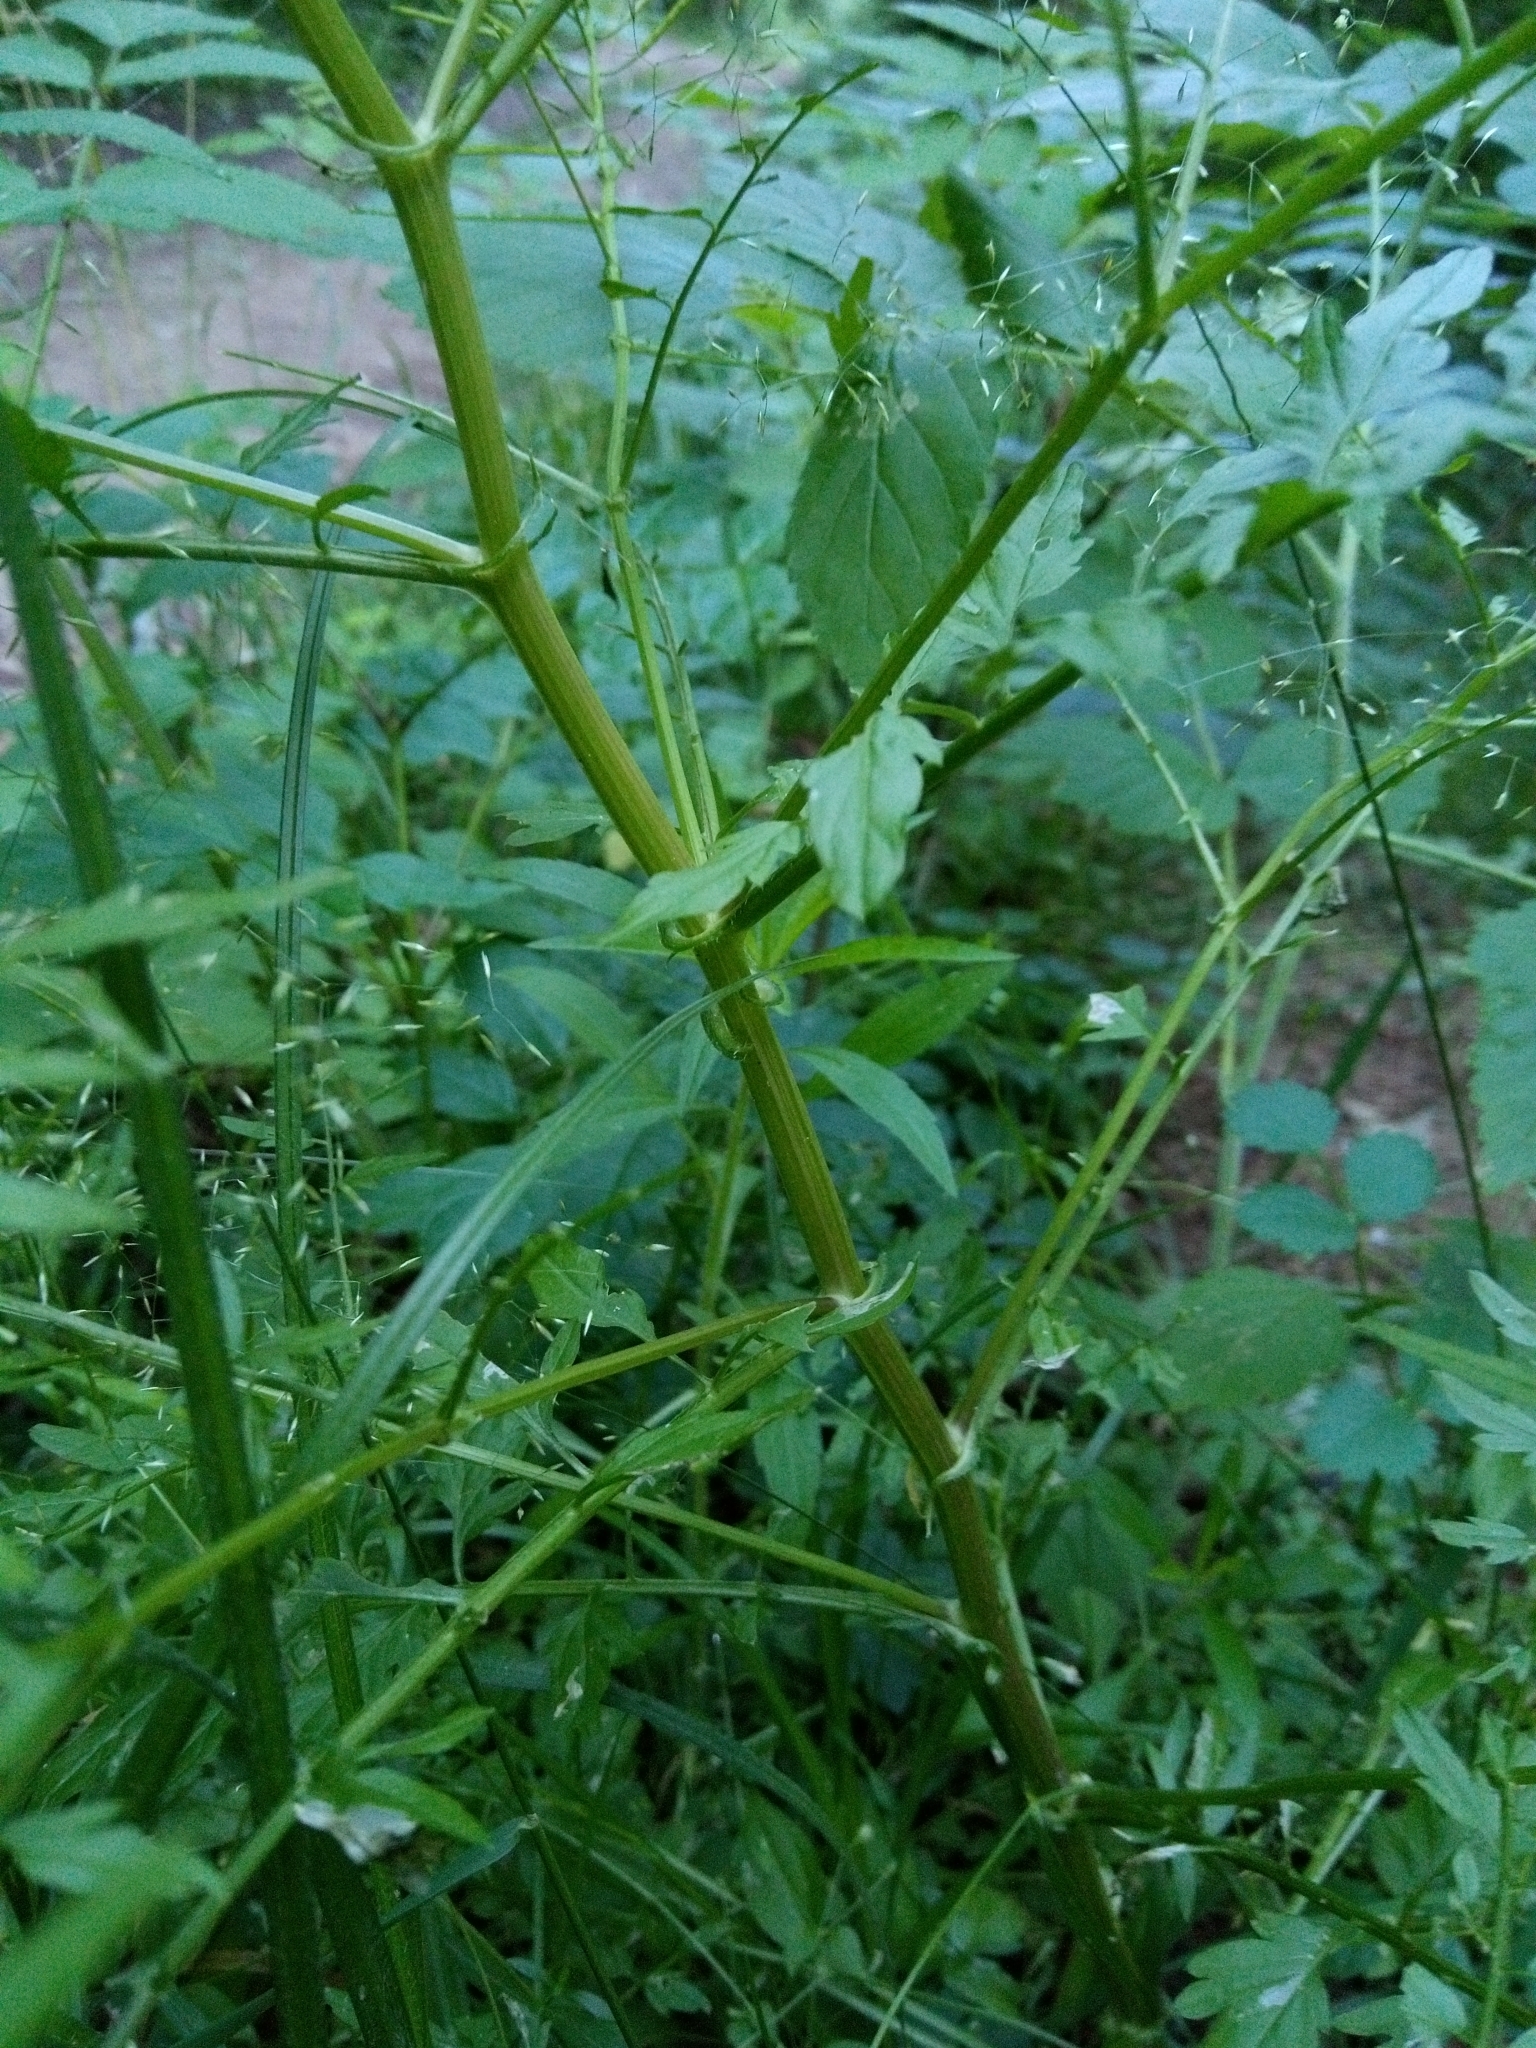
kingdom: Plantae
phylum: Tracheophyta
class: Magnoliopsida
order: Brassicales
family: Brassicaceae
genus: Cardamine
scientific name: Cardamine impatiens
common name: Narrow-leaved bitter-cress
